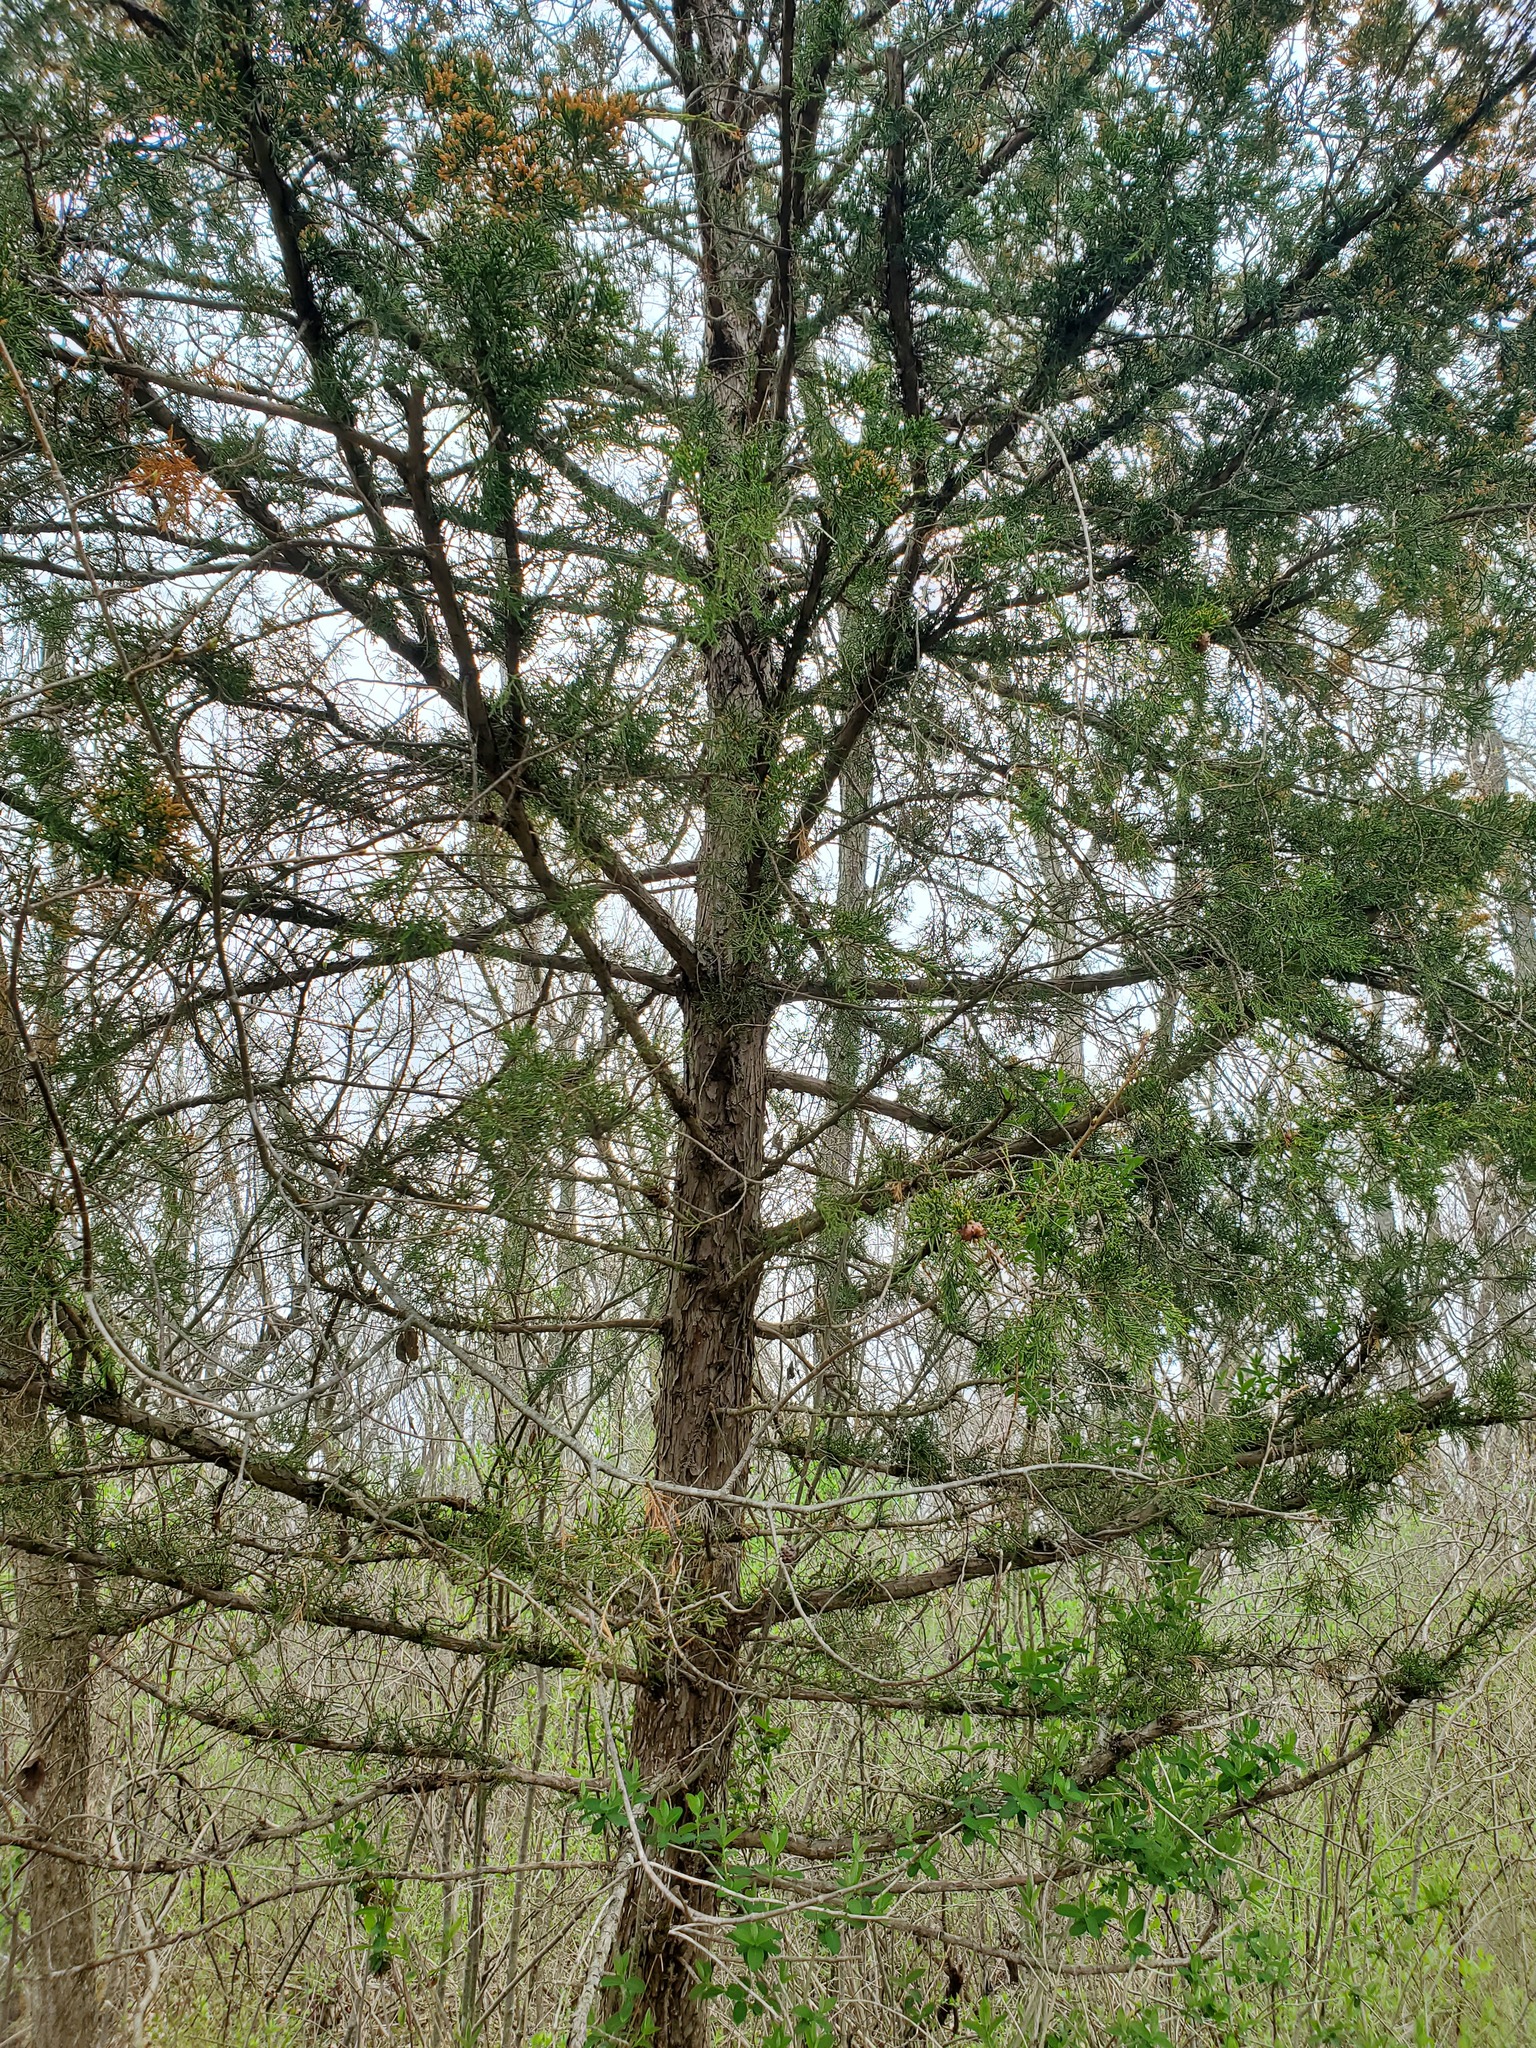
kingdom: Plantae
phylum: Tracheophyta
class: Pinopsida
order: Pinales
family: Cupressaceae
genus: Juniperus
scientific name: Juniperus virginiana
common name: Red juniper
